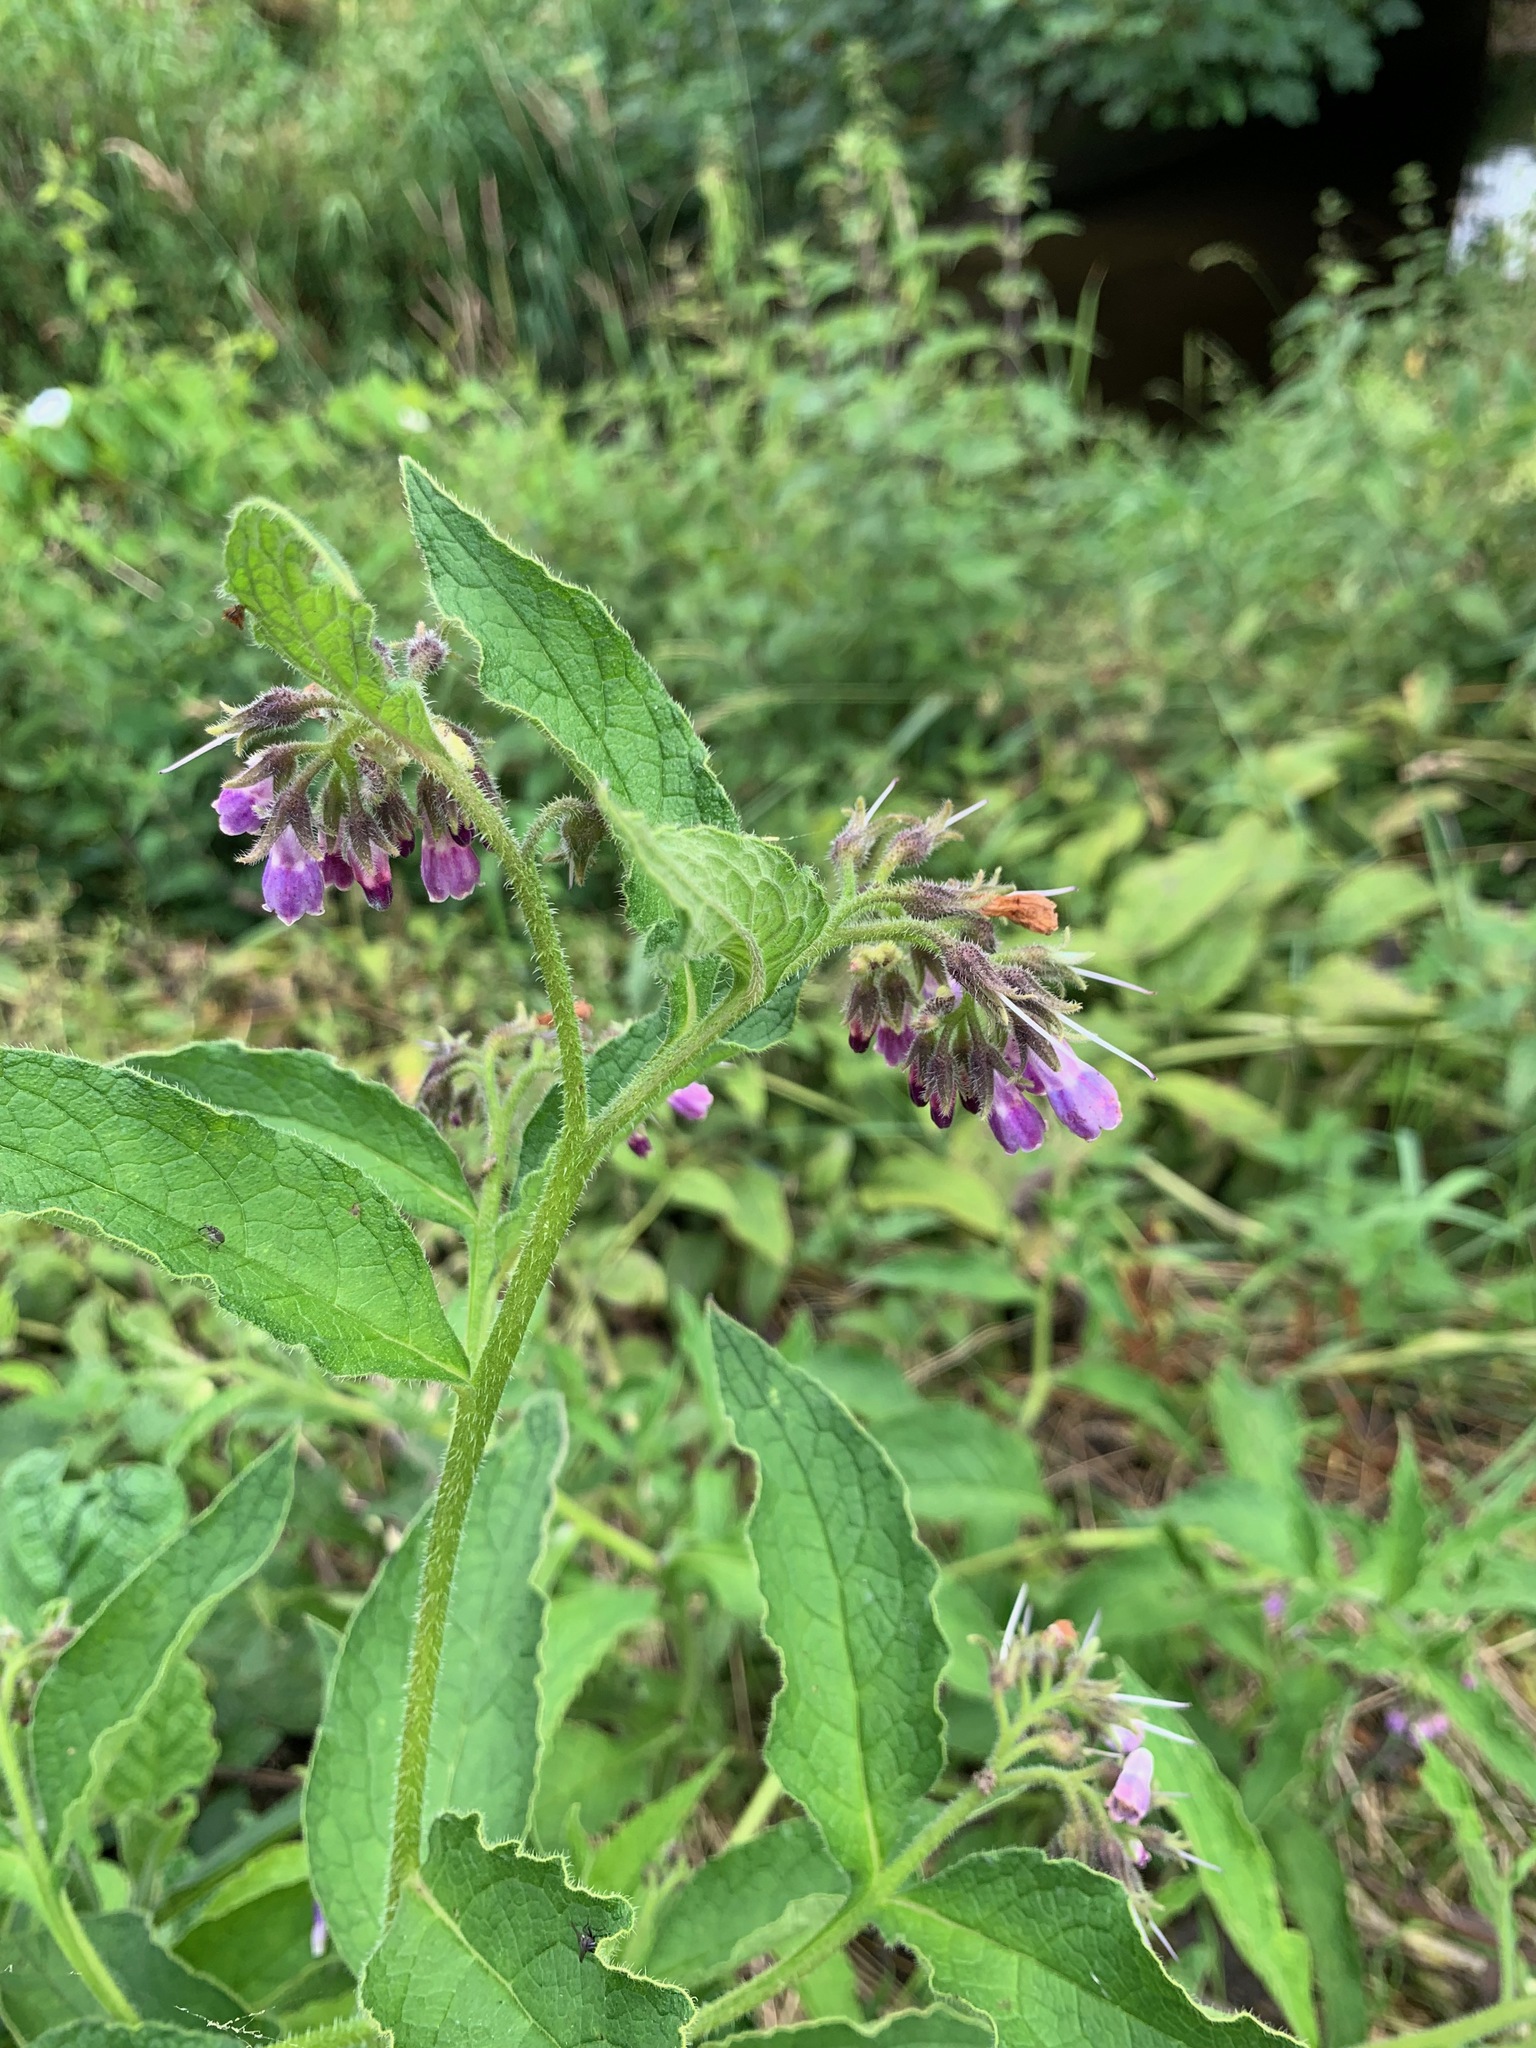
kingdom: Plantae
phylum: Tracheophyta
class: Magnoliopsida
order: Boraginales
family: Boraginaceae
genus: Symphytum
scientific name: Symphytum uplandicum
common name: Russian comfrey
